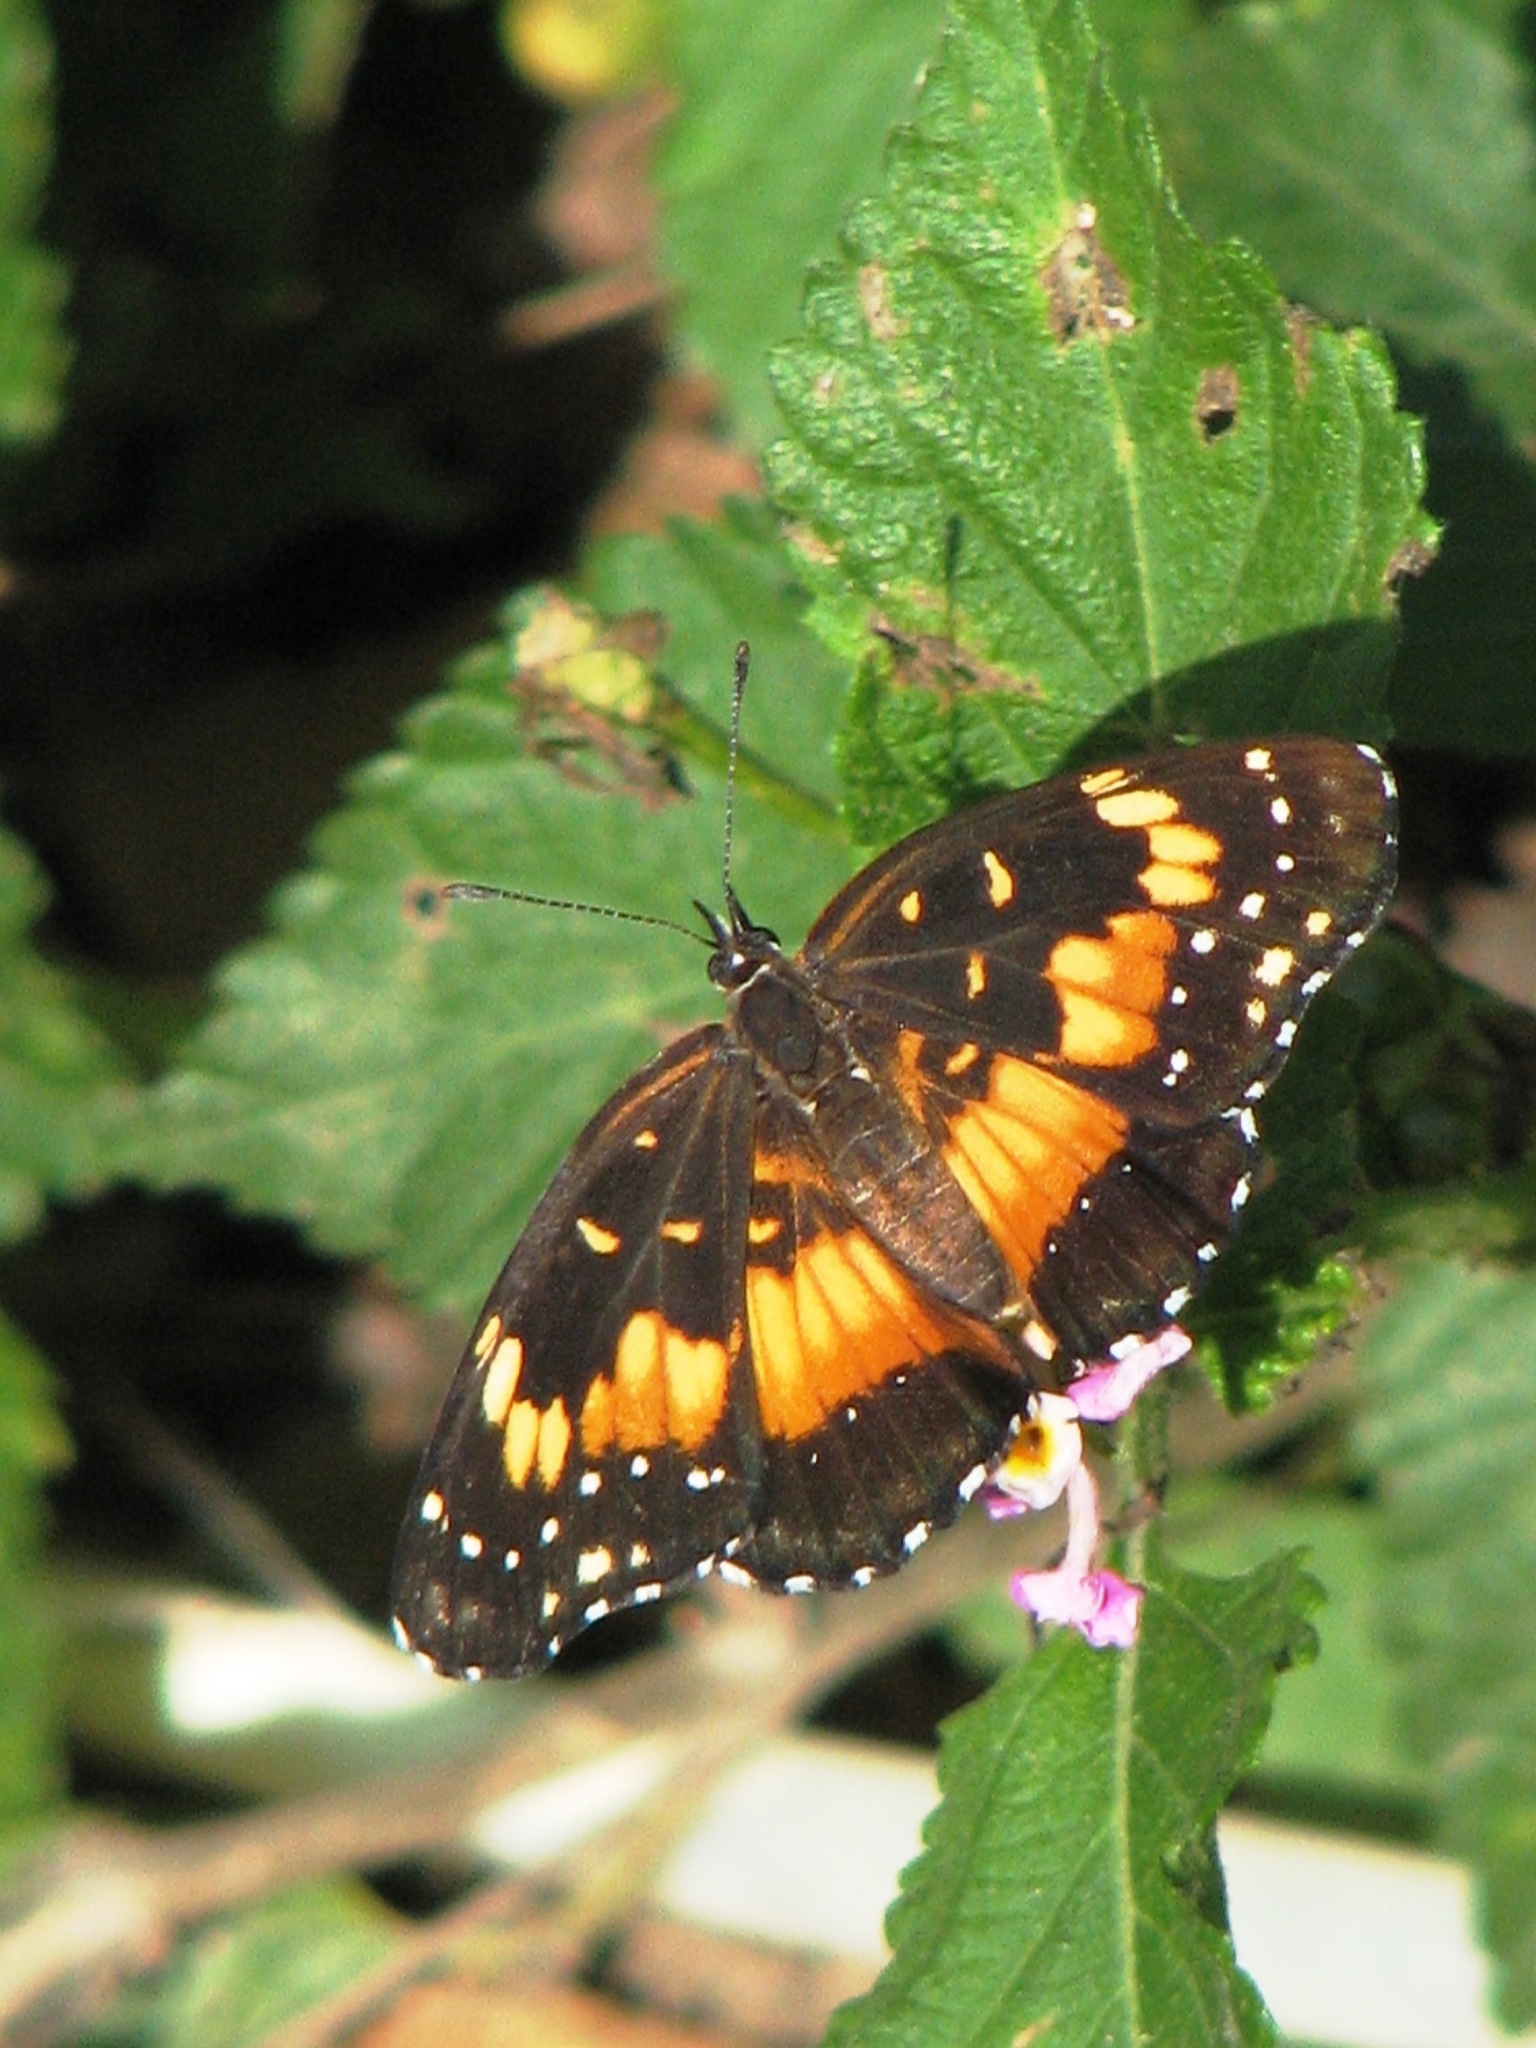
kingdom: Animalia
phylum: Arthropoda
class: Insecta
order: Lepidoptera
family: Nymphalidae
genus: Chlosyne
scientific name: Chlosyne lacinia
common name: Bordered patch
